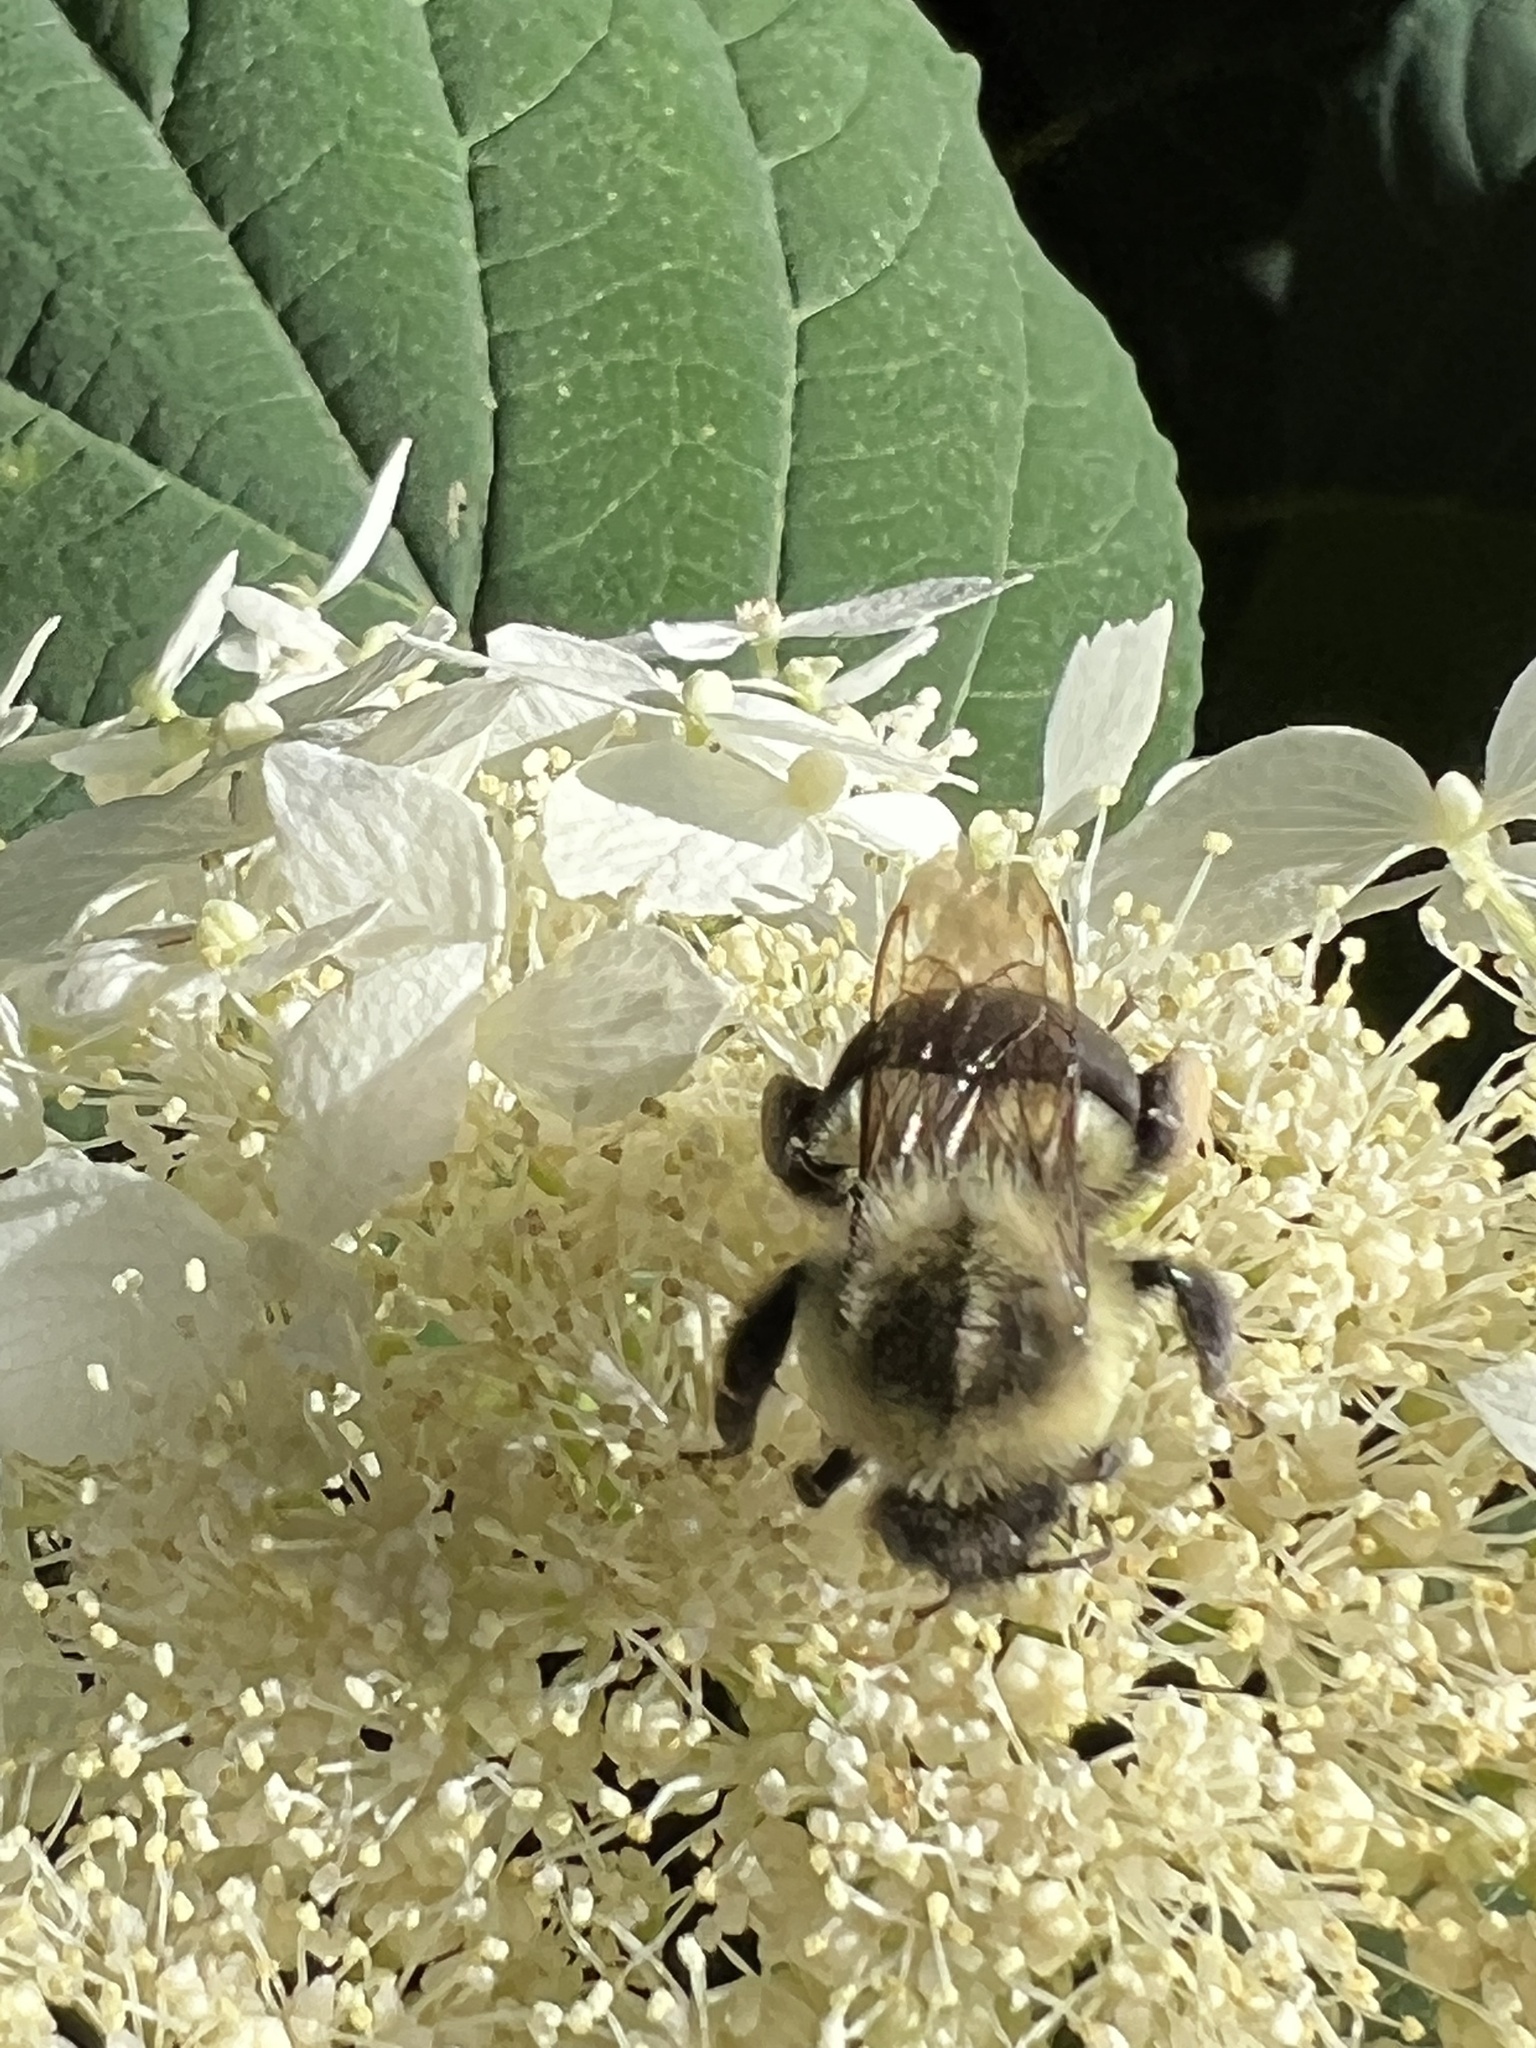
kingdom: Animalia
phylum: Arthropoda
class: Insecta
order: Hymenoptera
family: Apidae
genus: Bombus
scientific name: Bombus impatiens
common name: Common eastern bumble bee
